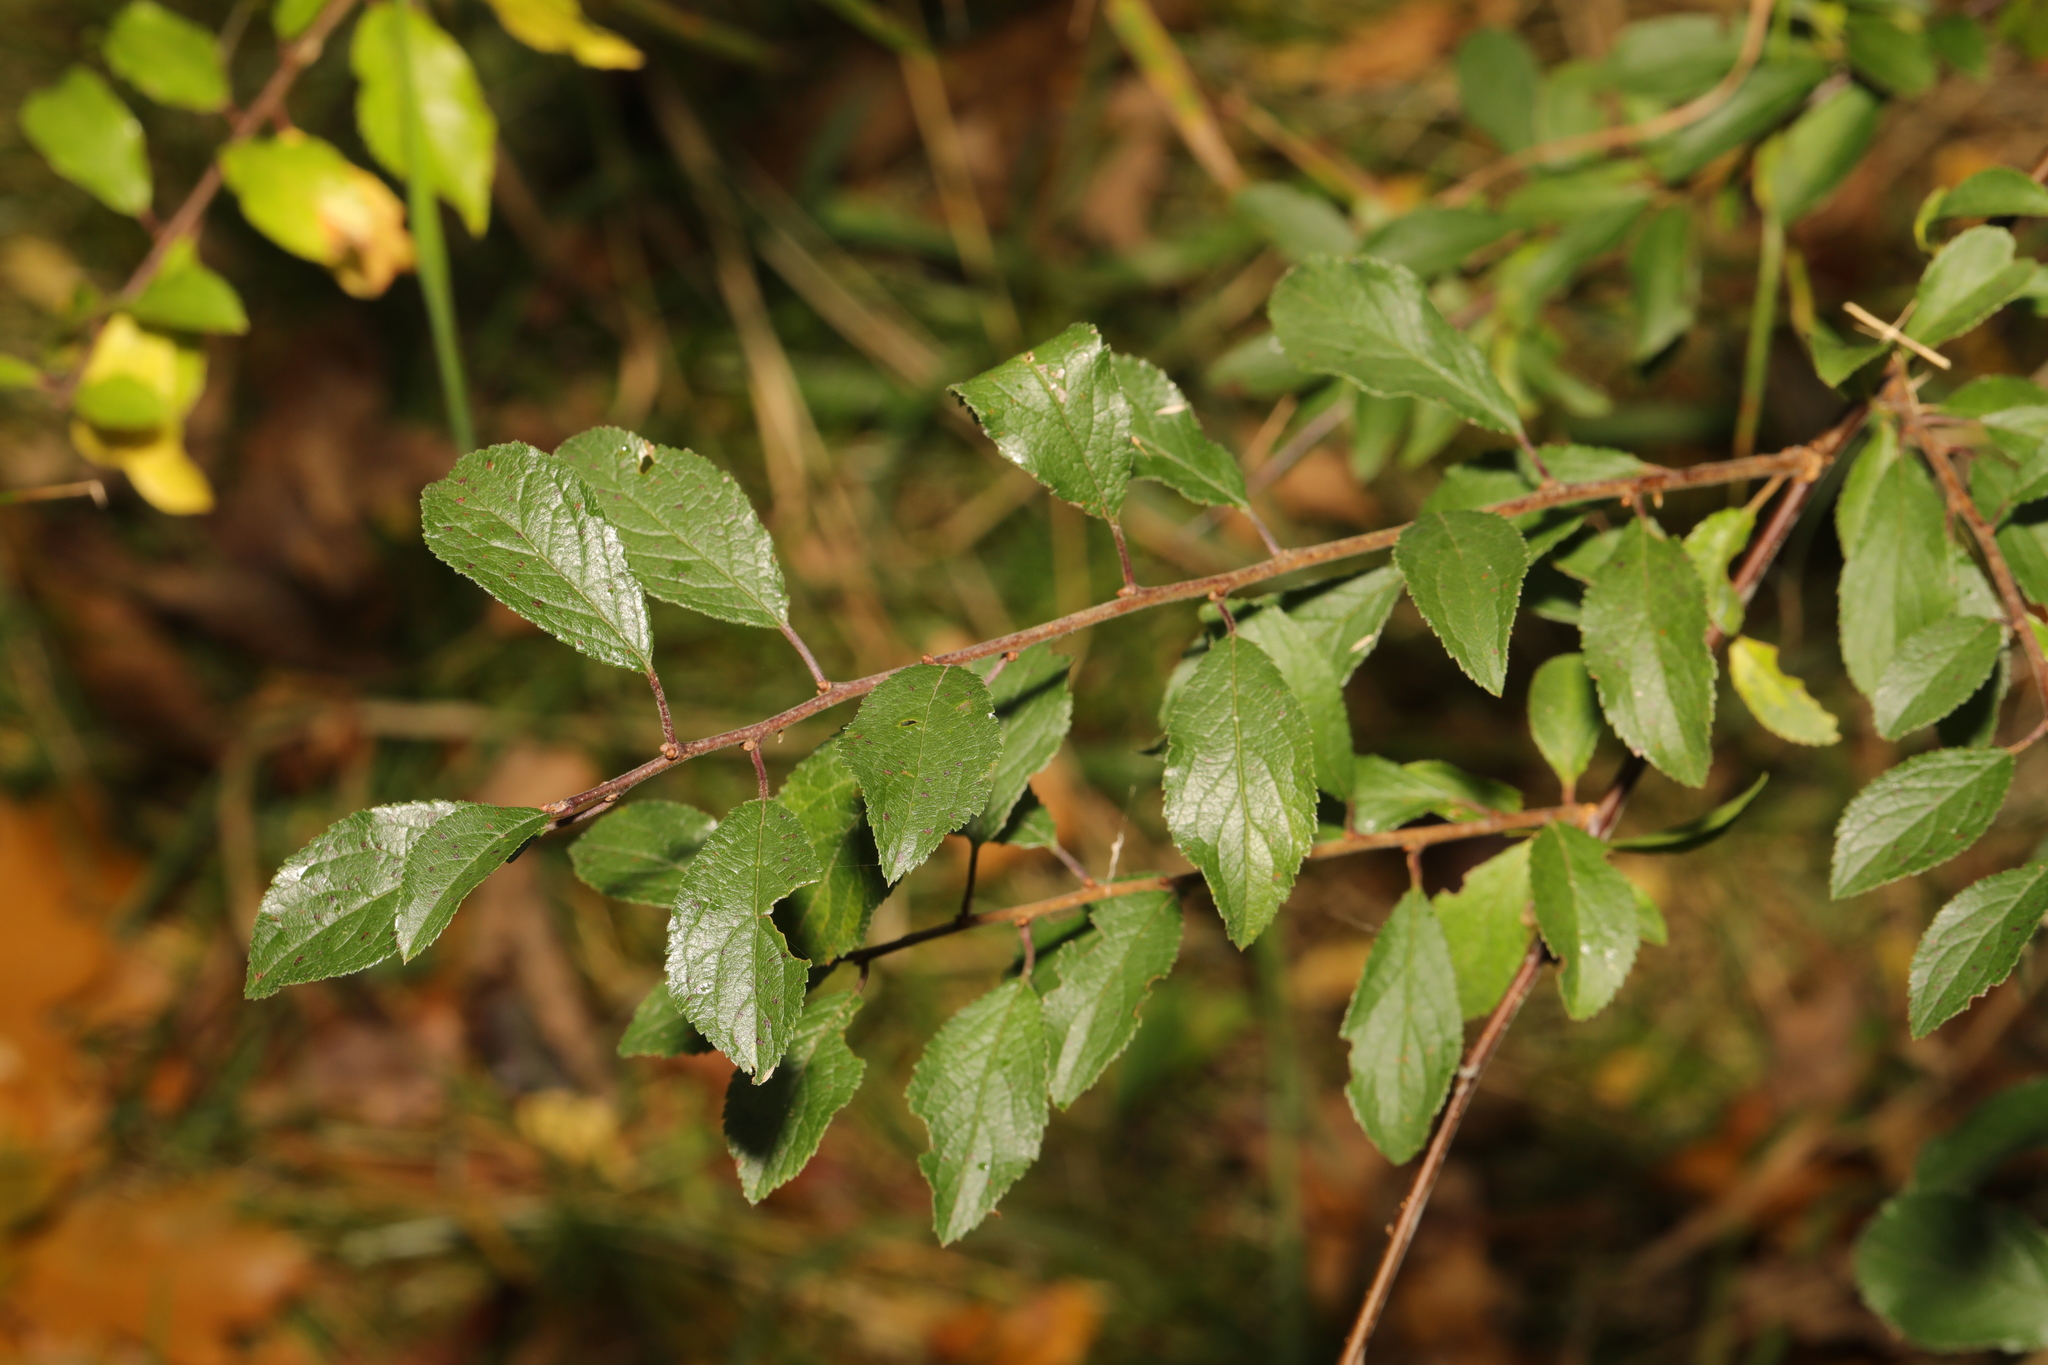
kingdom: Plantae
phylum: Tracheophyta
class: Magnoliopsida
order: Rosales
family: Rosaceae
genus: Prunus
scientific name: Prunus spinosa
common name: Blackthorn
